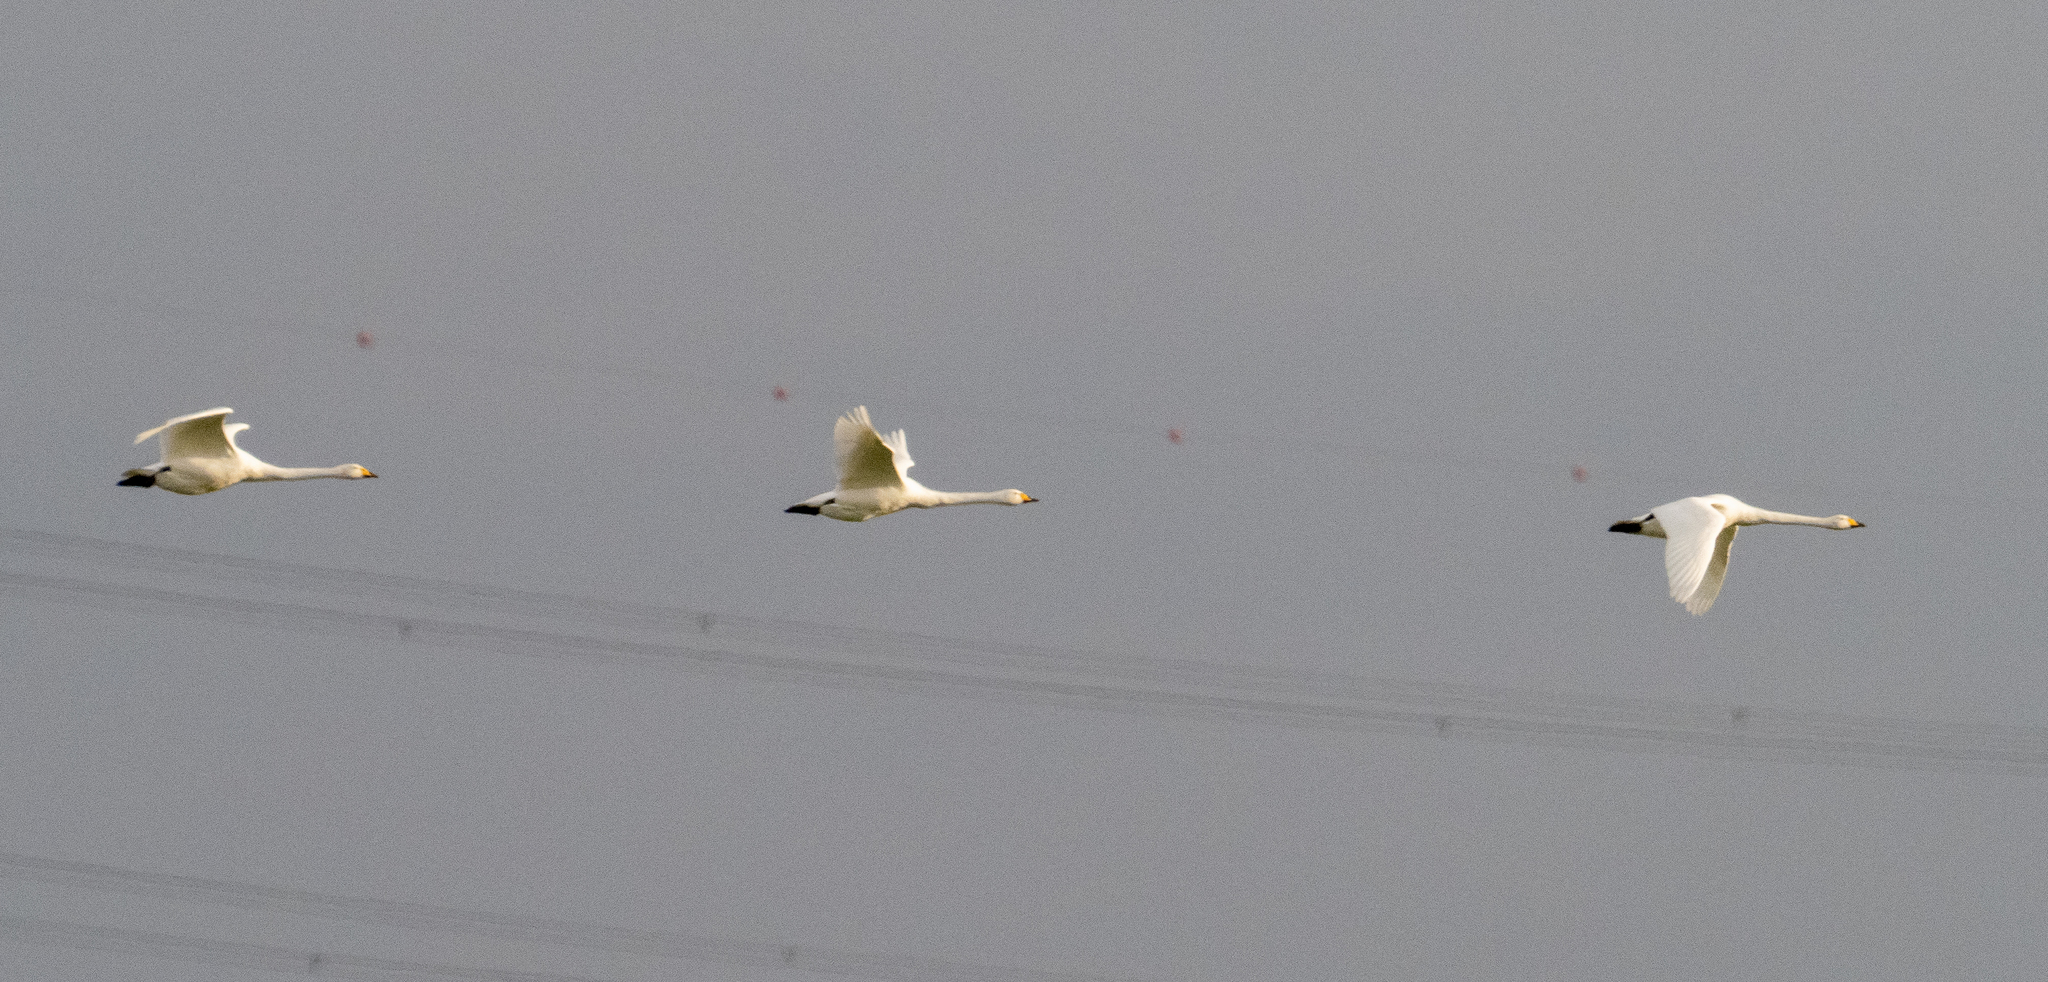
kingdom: Animalia
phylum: Chordata
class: Aves
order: Anseriformes
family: Anatidae
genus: Cygnus
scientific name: Cygnus cygnus
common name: Whooper swan
